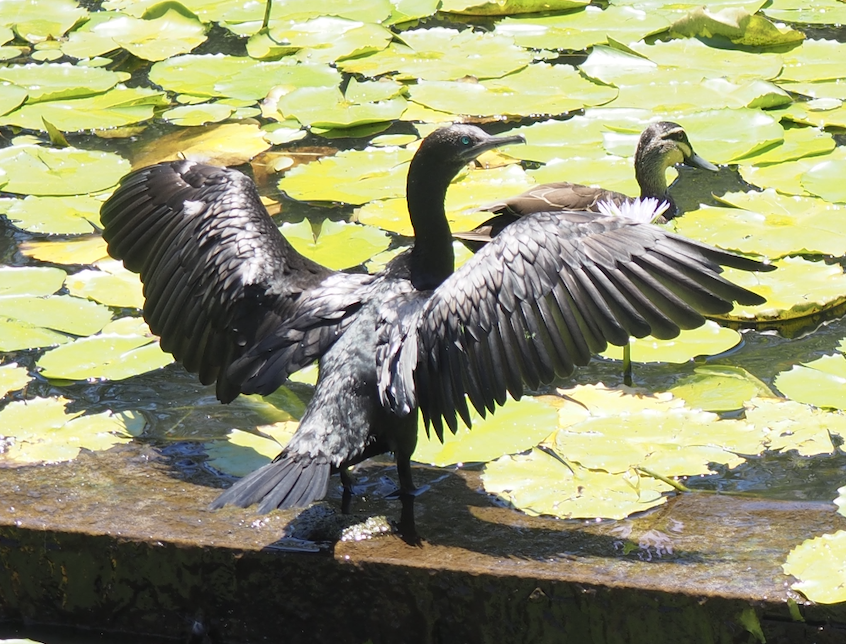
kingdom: Animalia
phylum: Chordata
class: Aves
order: Suliformes
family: Phalacrocoracidae
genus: Phalacrocorax
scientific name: Phalacrocorax sulcirostris
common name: Little black cormorant
